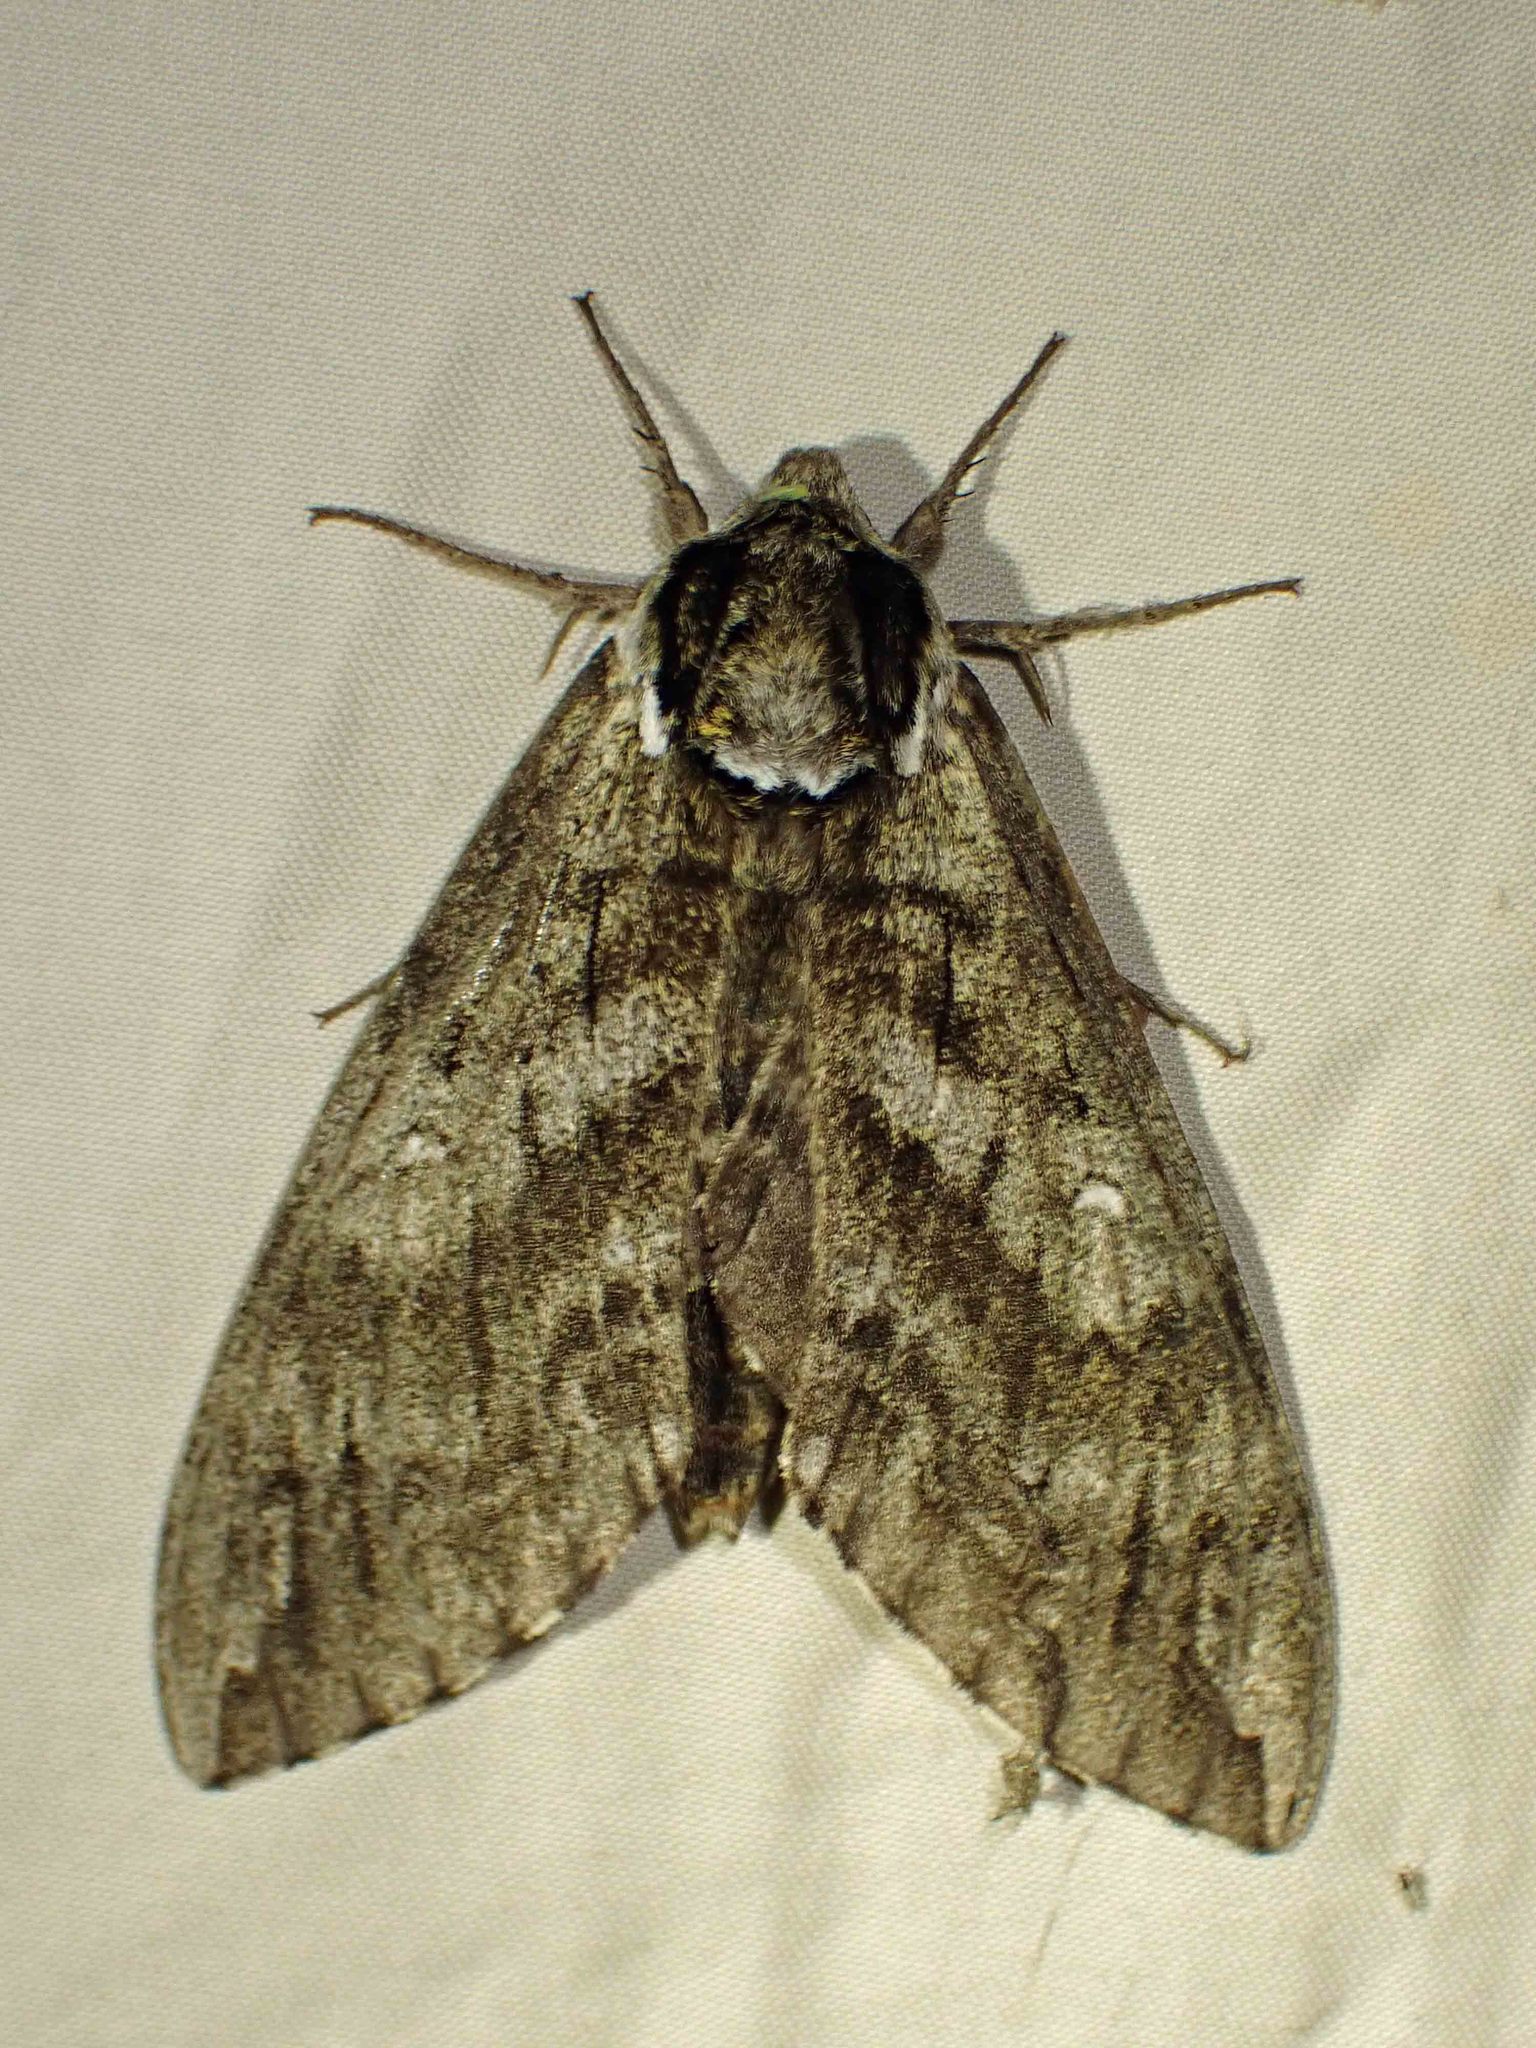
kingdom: Animalia
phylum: Arthropoda
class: Insecta
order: Lepidoptera
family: Sphingidae
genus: Ceratomia
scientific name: Ceratomia undulosa
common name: Waved sphinx
